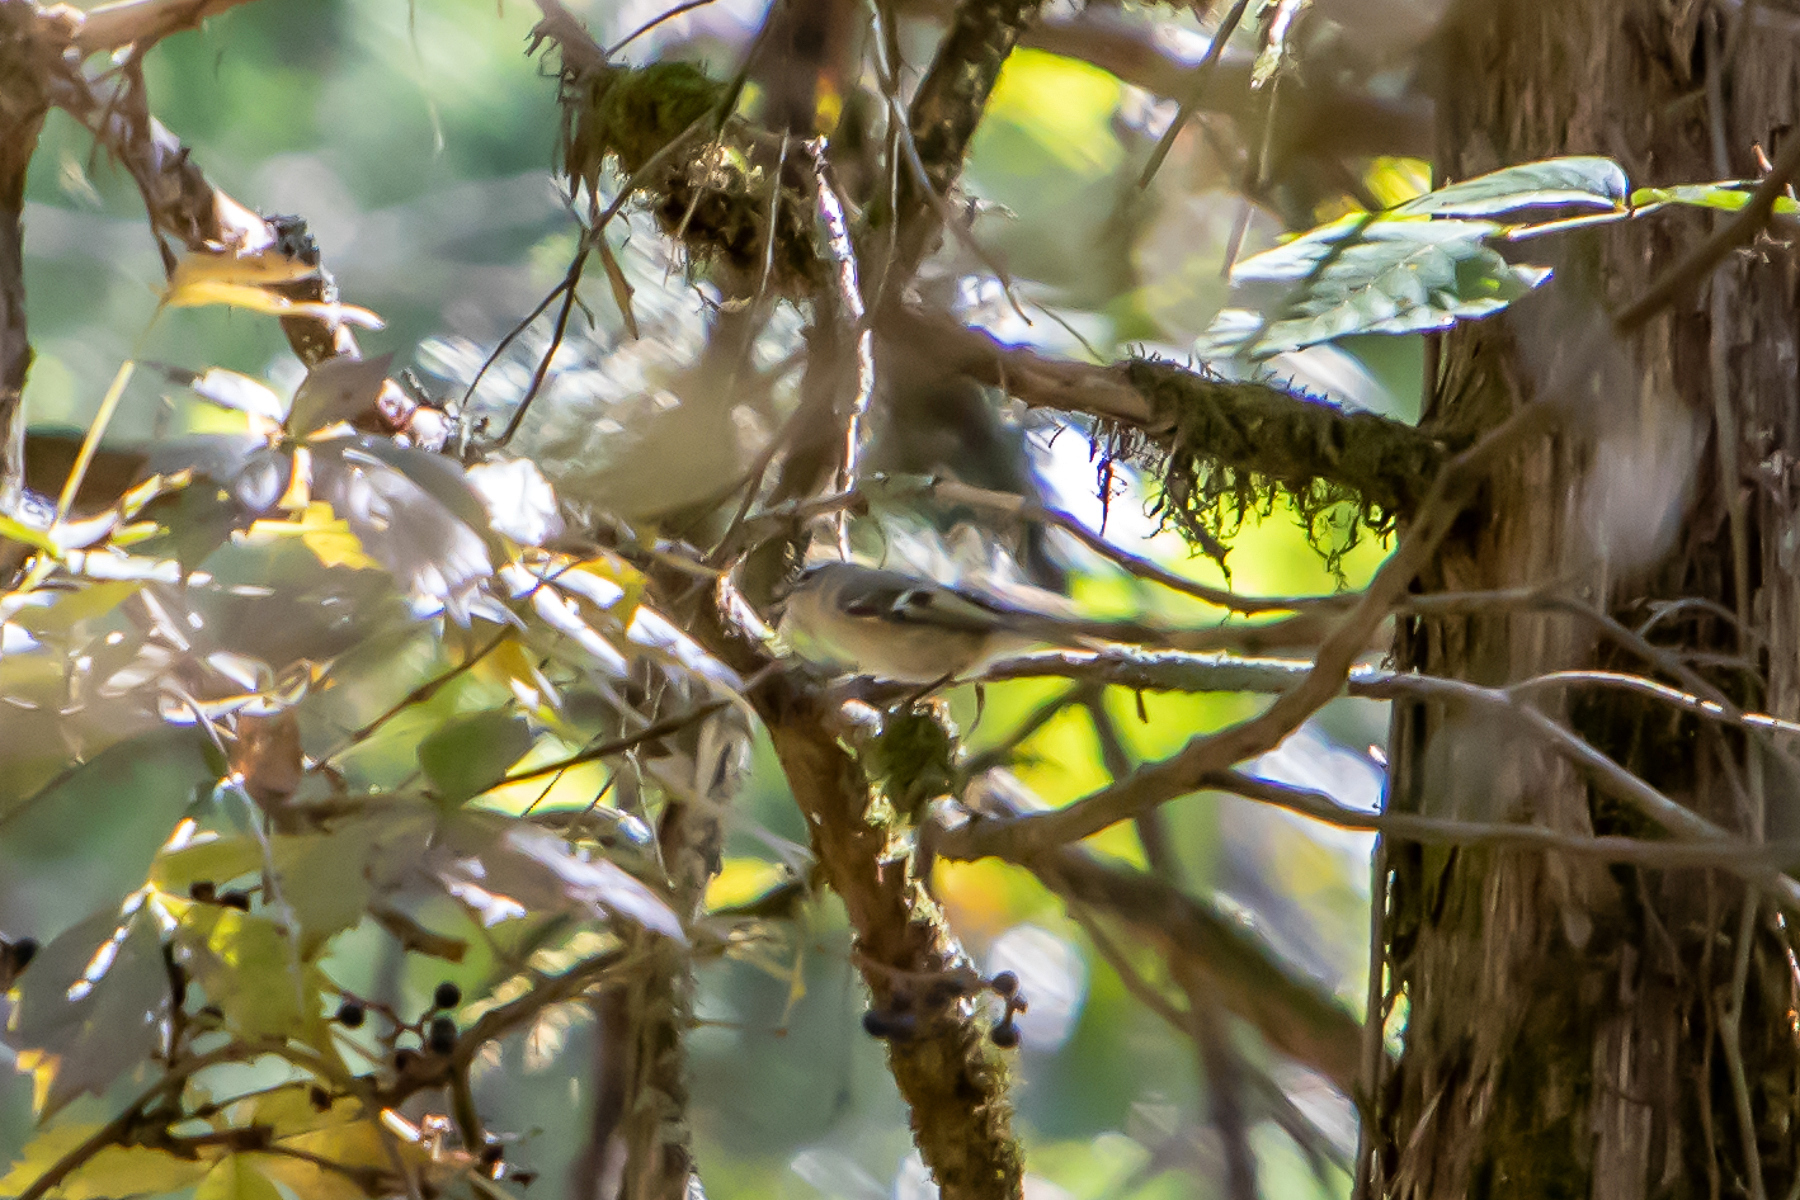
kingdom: Animalia
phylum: Chordata
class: Aves
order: Passeriformes
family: Regulidae
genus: Regulus
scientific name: Regulus satrapa
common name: Golden-crowned kinglet
